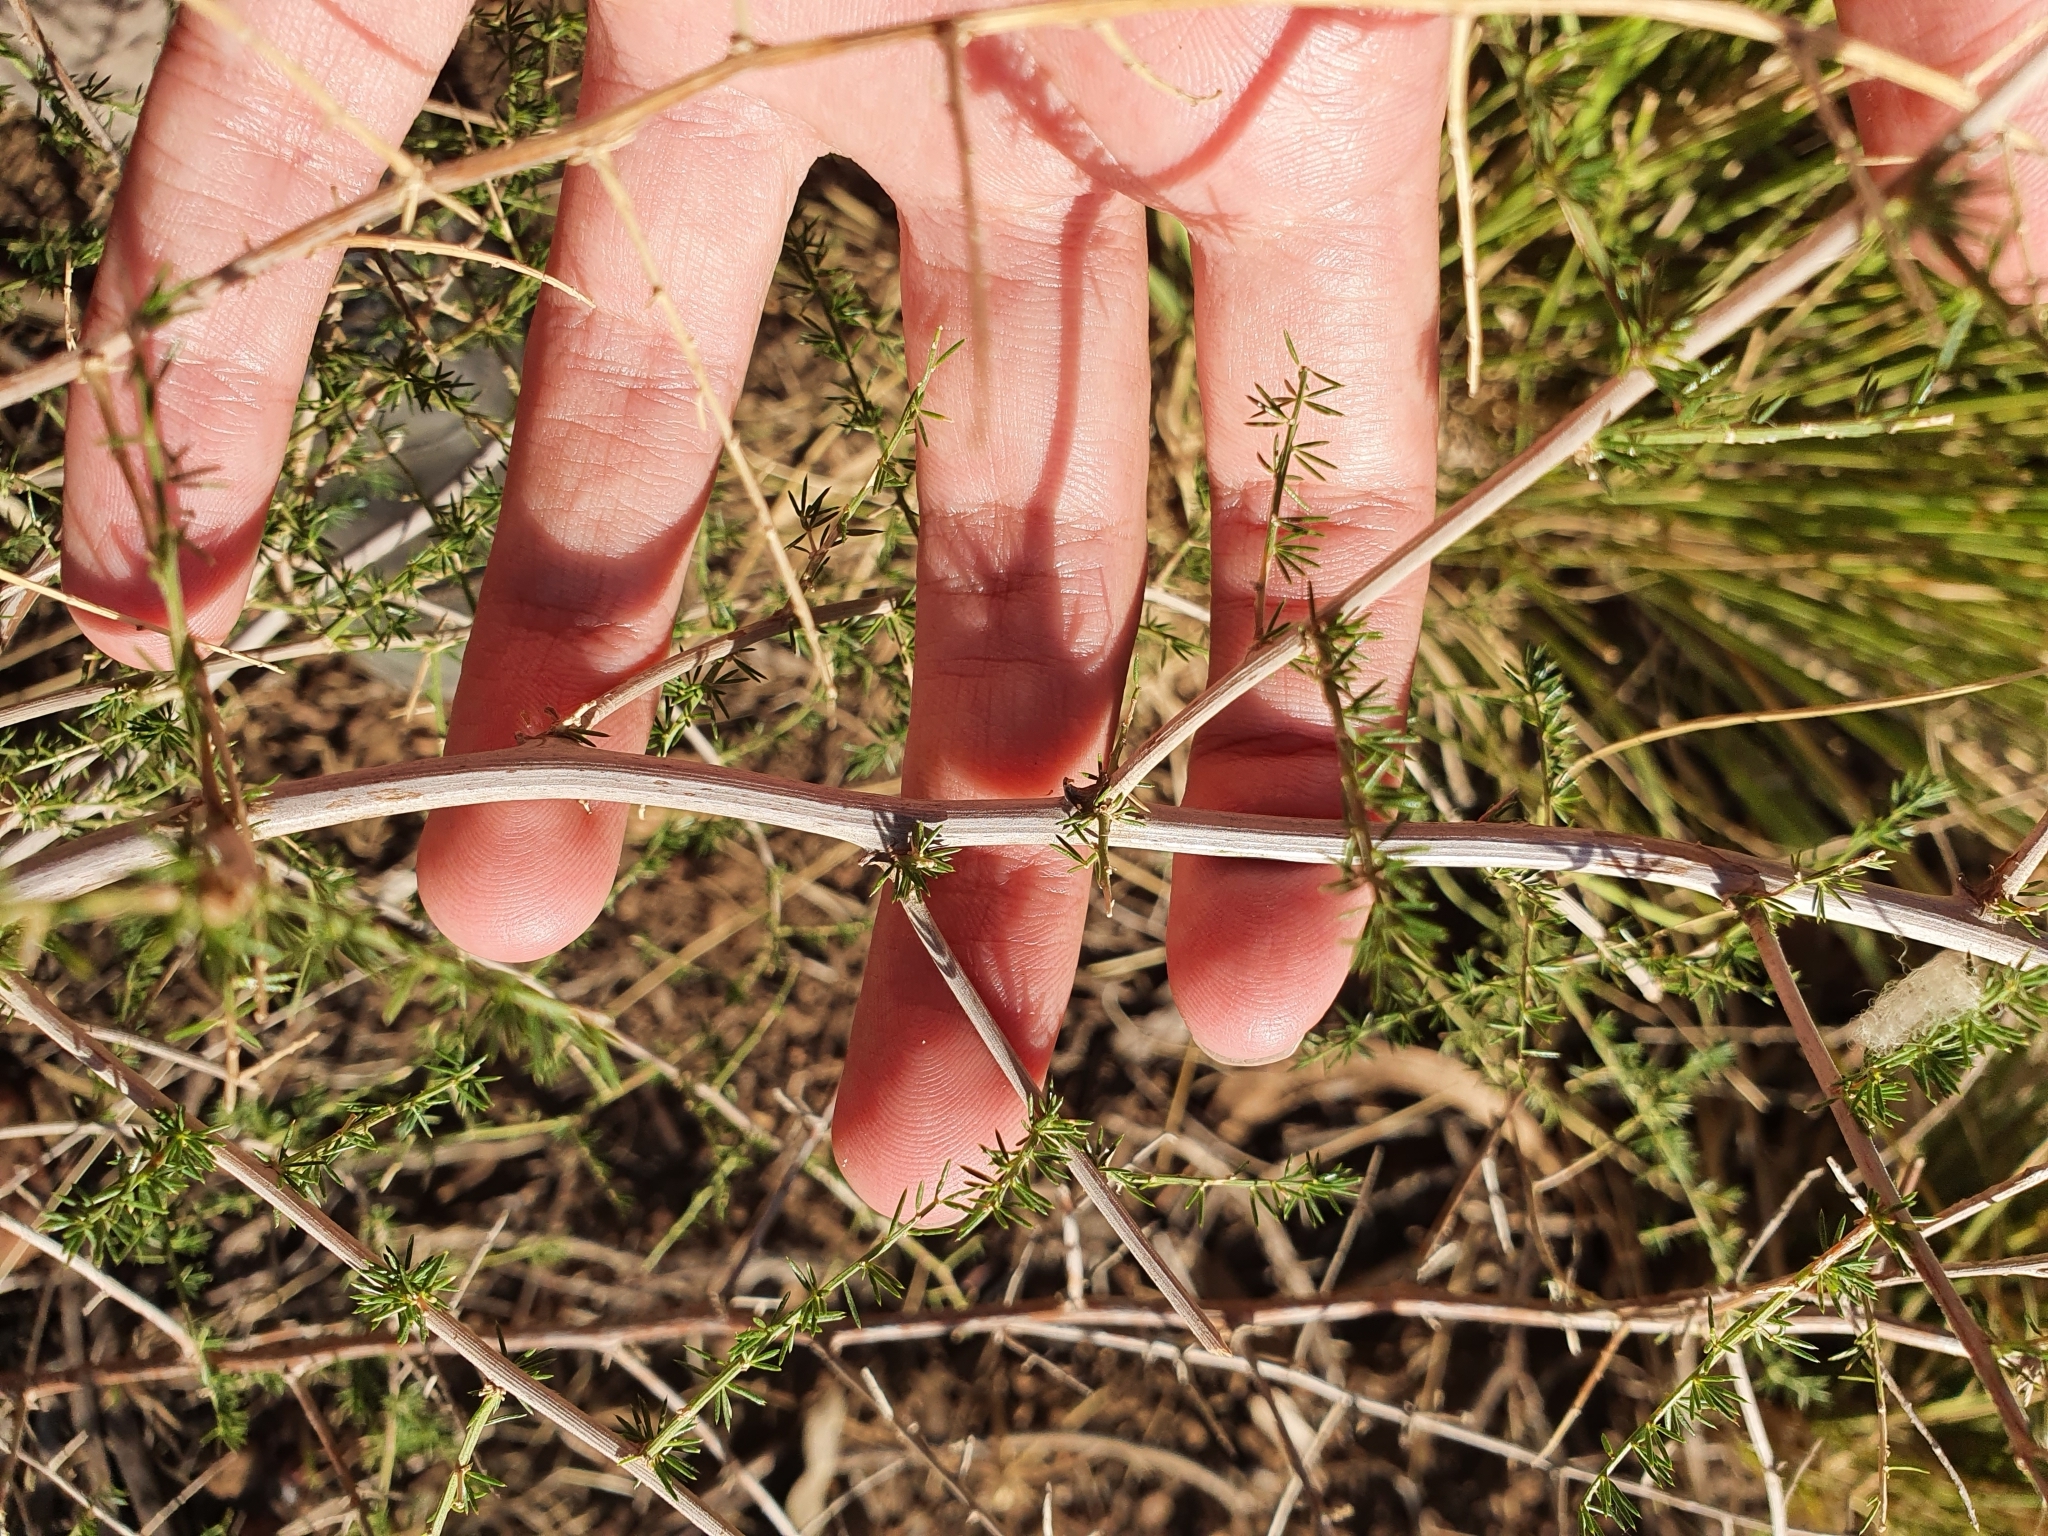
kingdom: Plantae
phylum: Tracheophyta
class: Liliopsida
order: Asparagales
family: Asparagaceae
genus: Asparagus
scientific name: Asparagus acutifolius
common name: Wild asparagus
